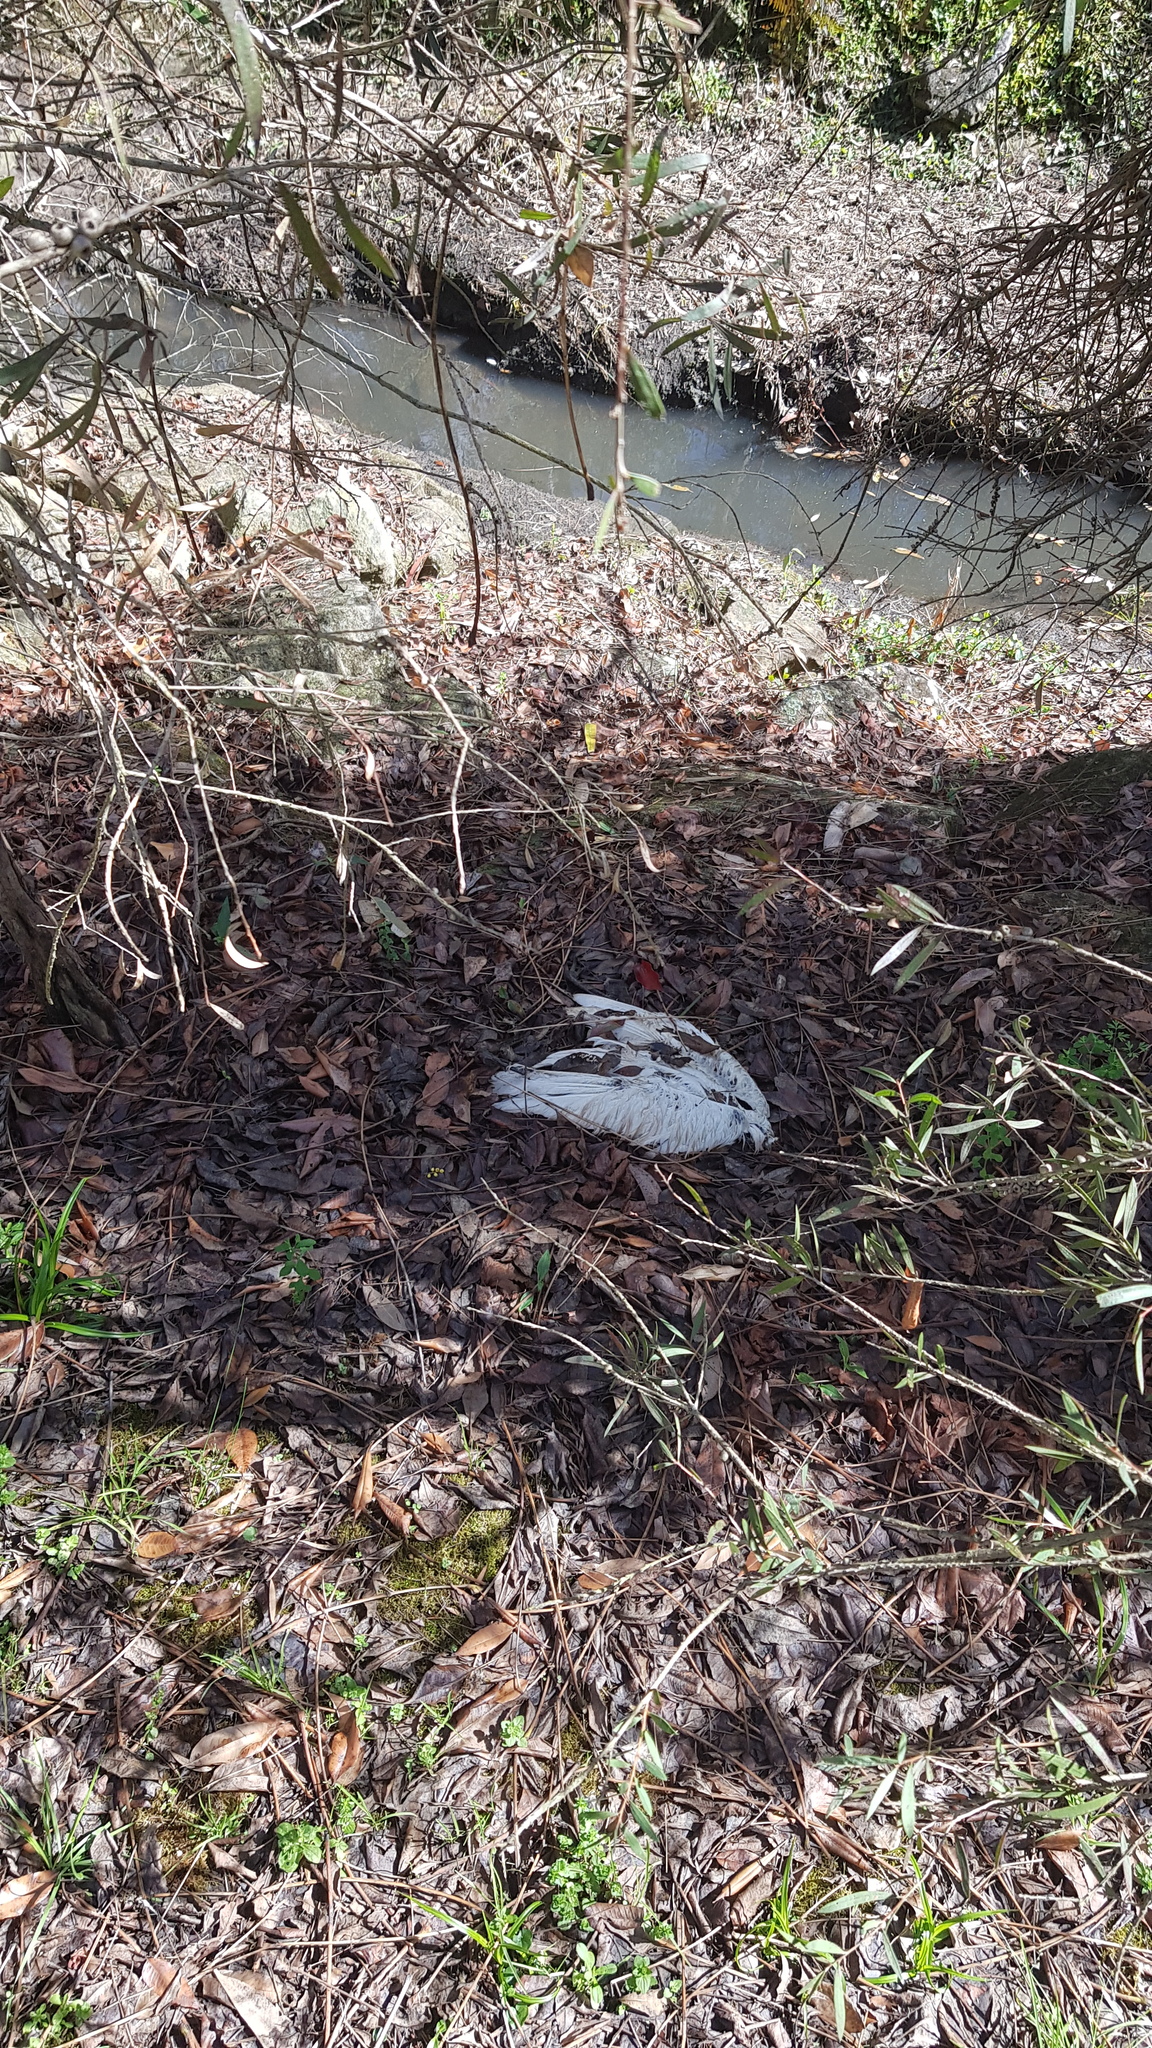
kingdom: Animalia
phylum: Chordata
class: Aves
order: Pelecaniformes
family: Threskiornithidae
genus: Threskiornis
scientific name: Threskiornis molucca
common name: Australian white ibis
